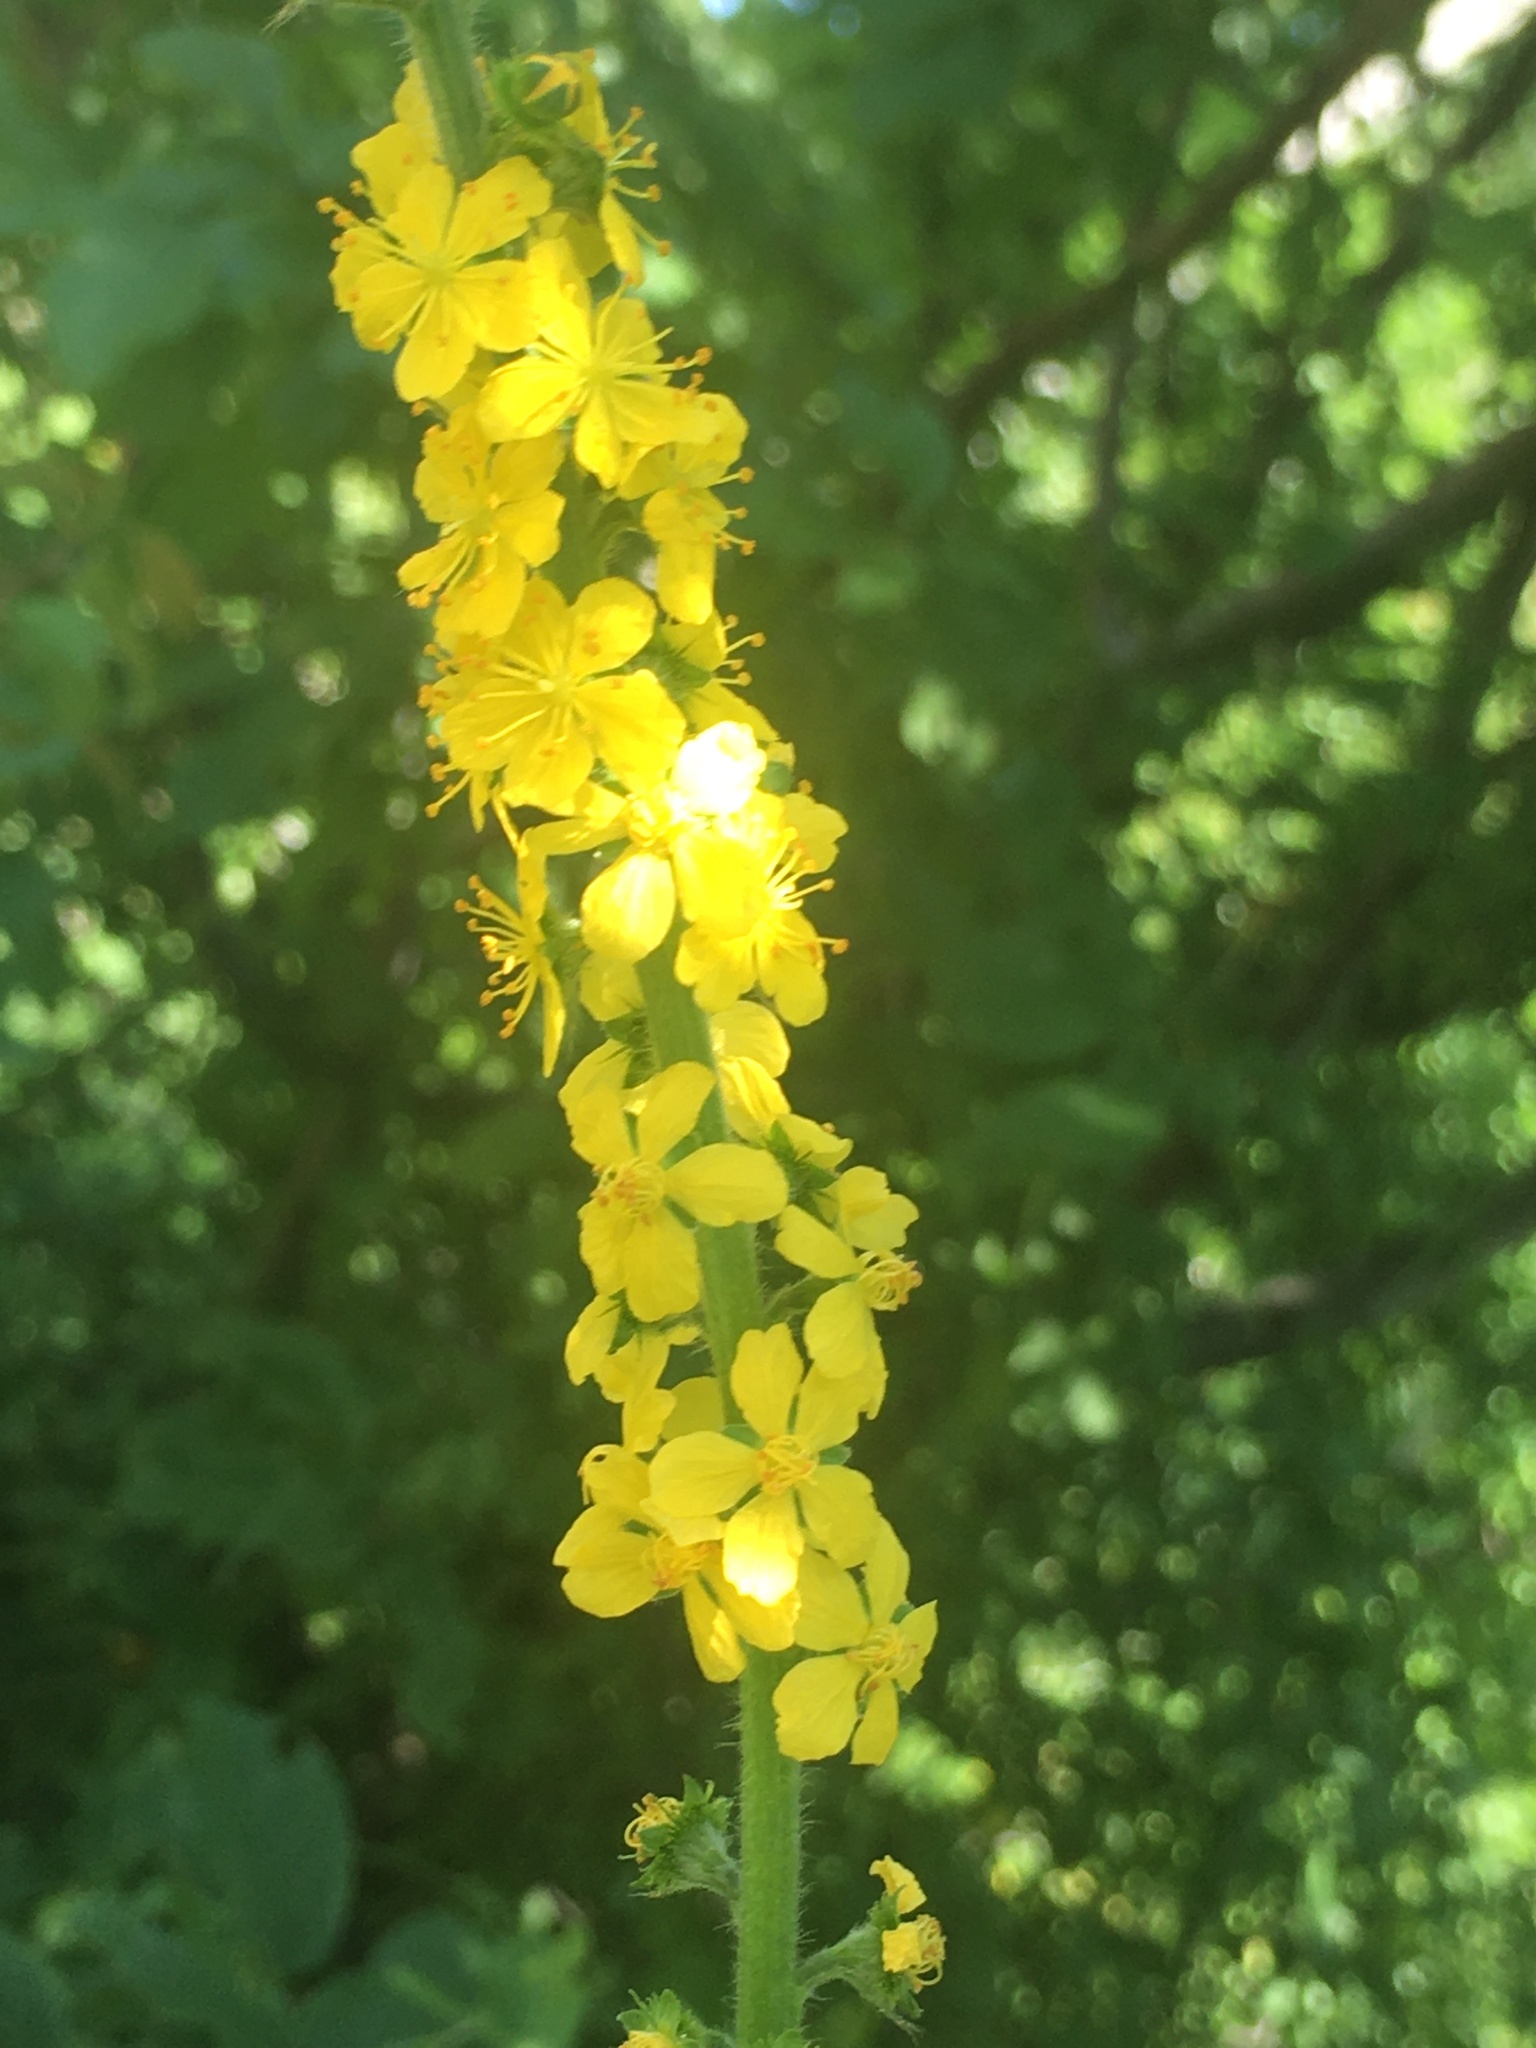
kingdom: Plantae
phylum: Tracheophyta
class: Magnoliopsida
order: Rosales
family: Rosaceae
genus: Agrimonia
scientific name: Agrimonia eupatoria
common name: Agrimony
